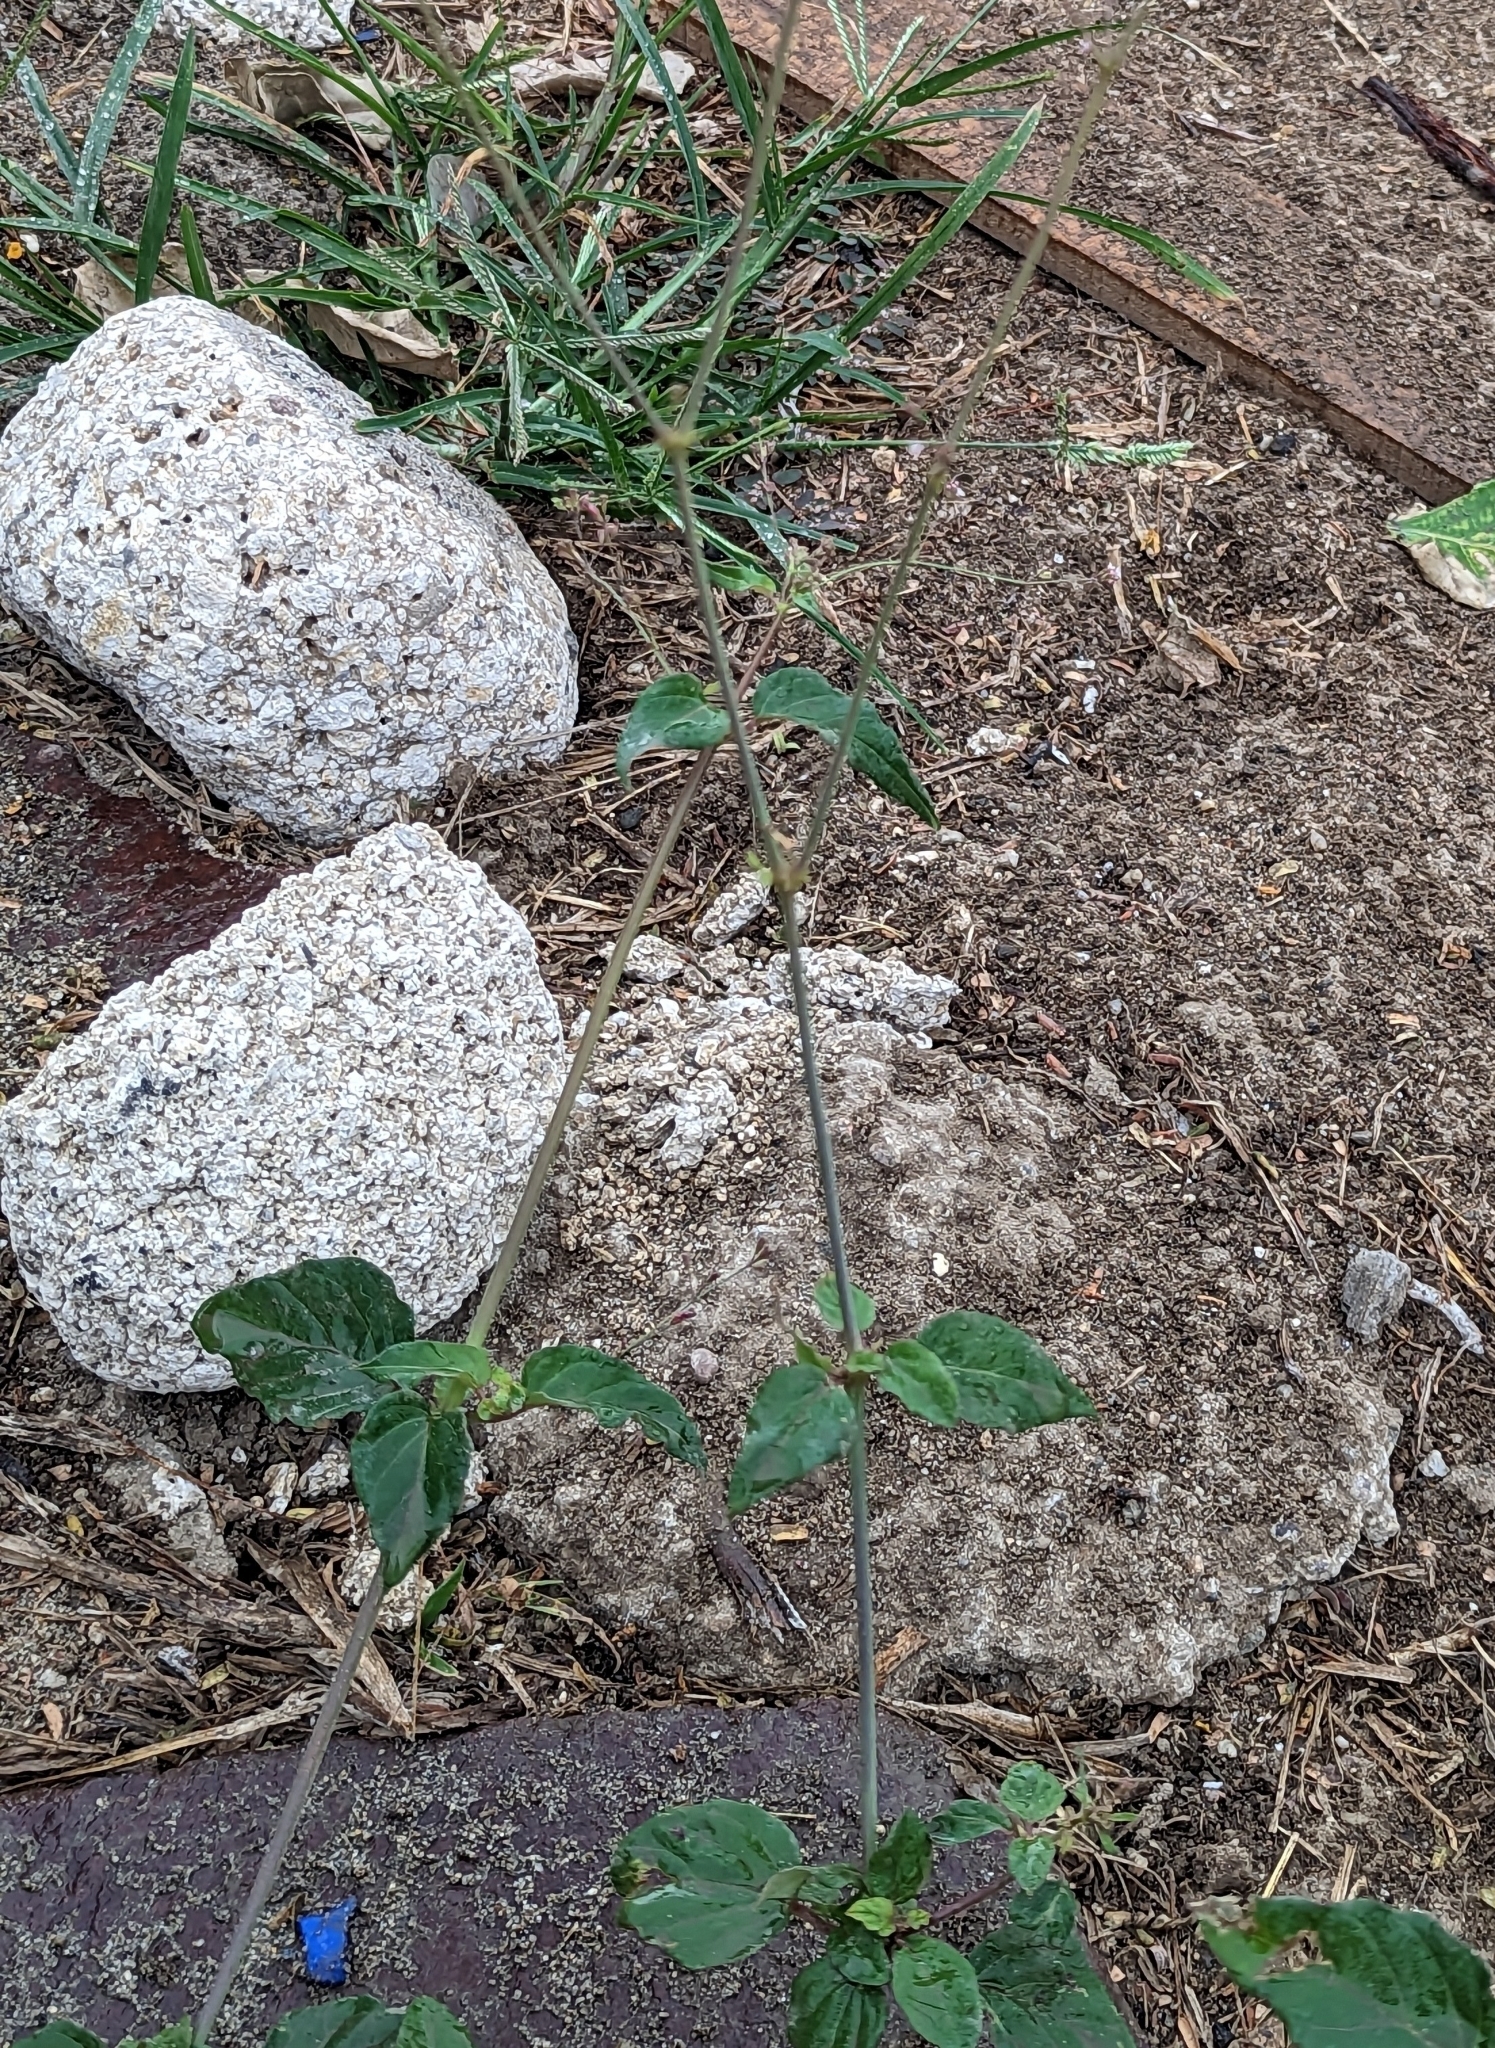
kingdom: Plantae
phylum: Tracheophyta
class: Magnoliopsida
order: Caryophyllales
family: Nyctaginaceae
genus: Boerhavia
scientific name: Boerhavia erecta
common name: Erect spiderling
